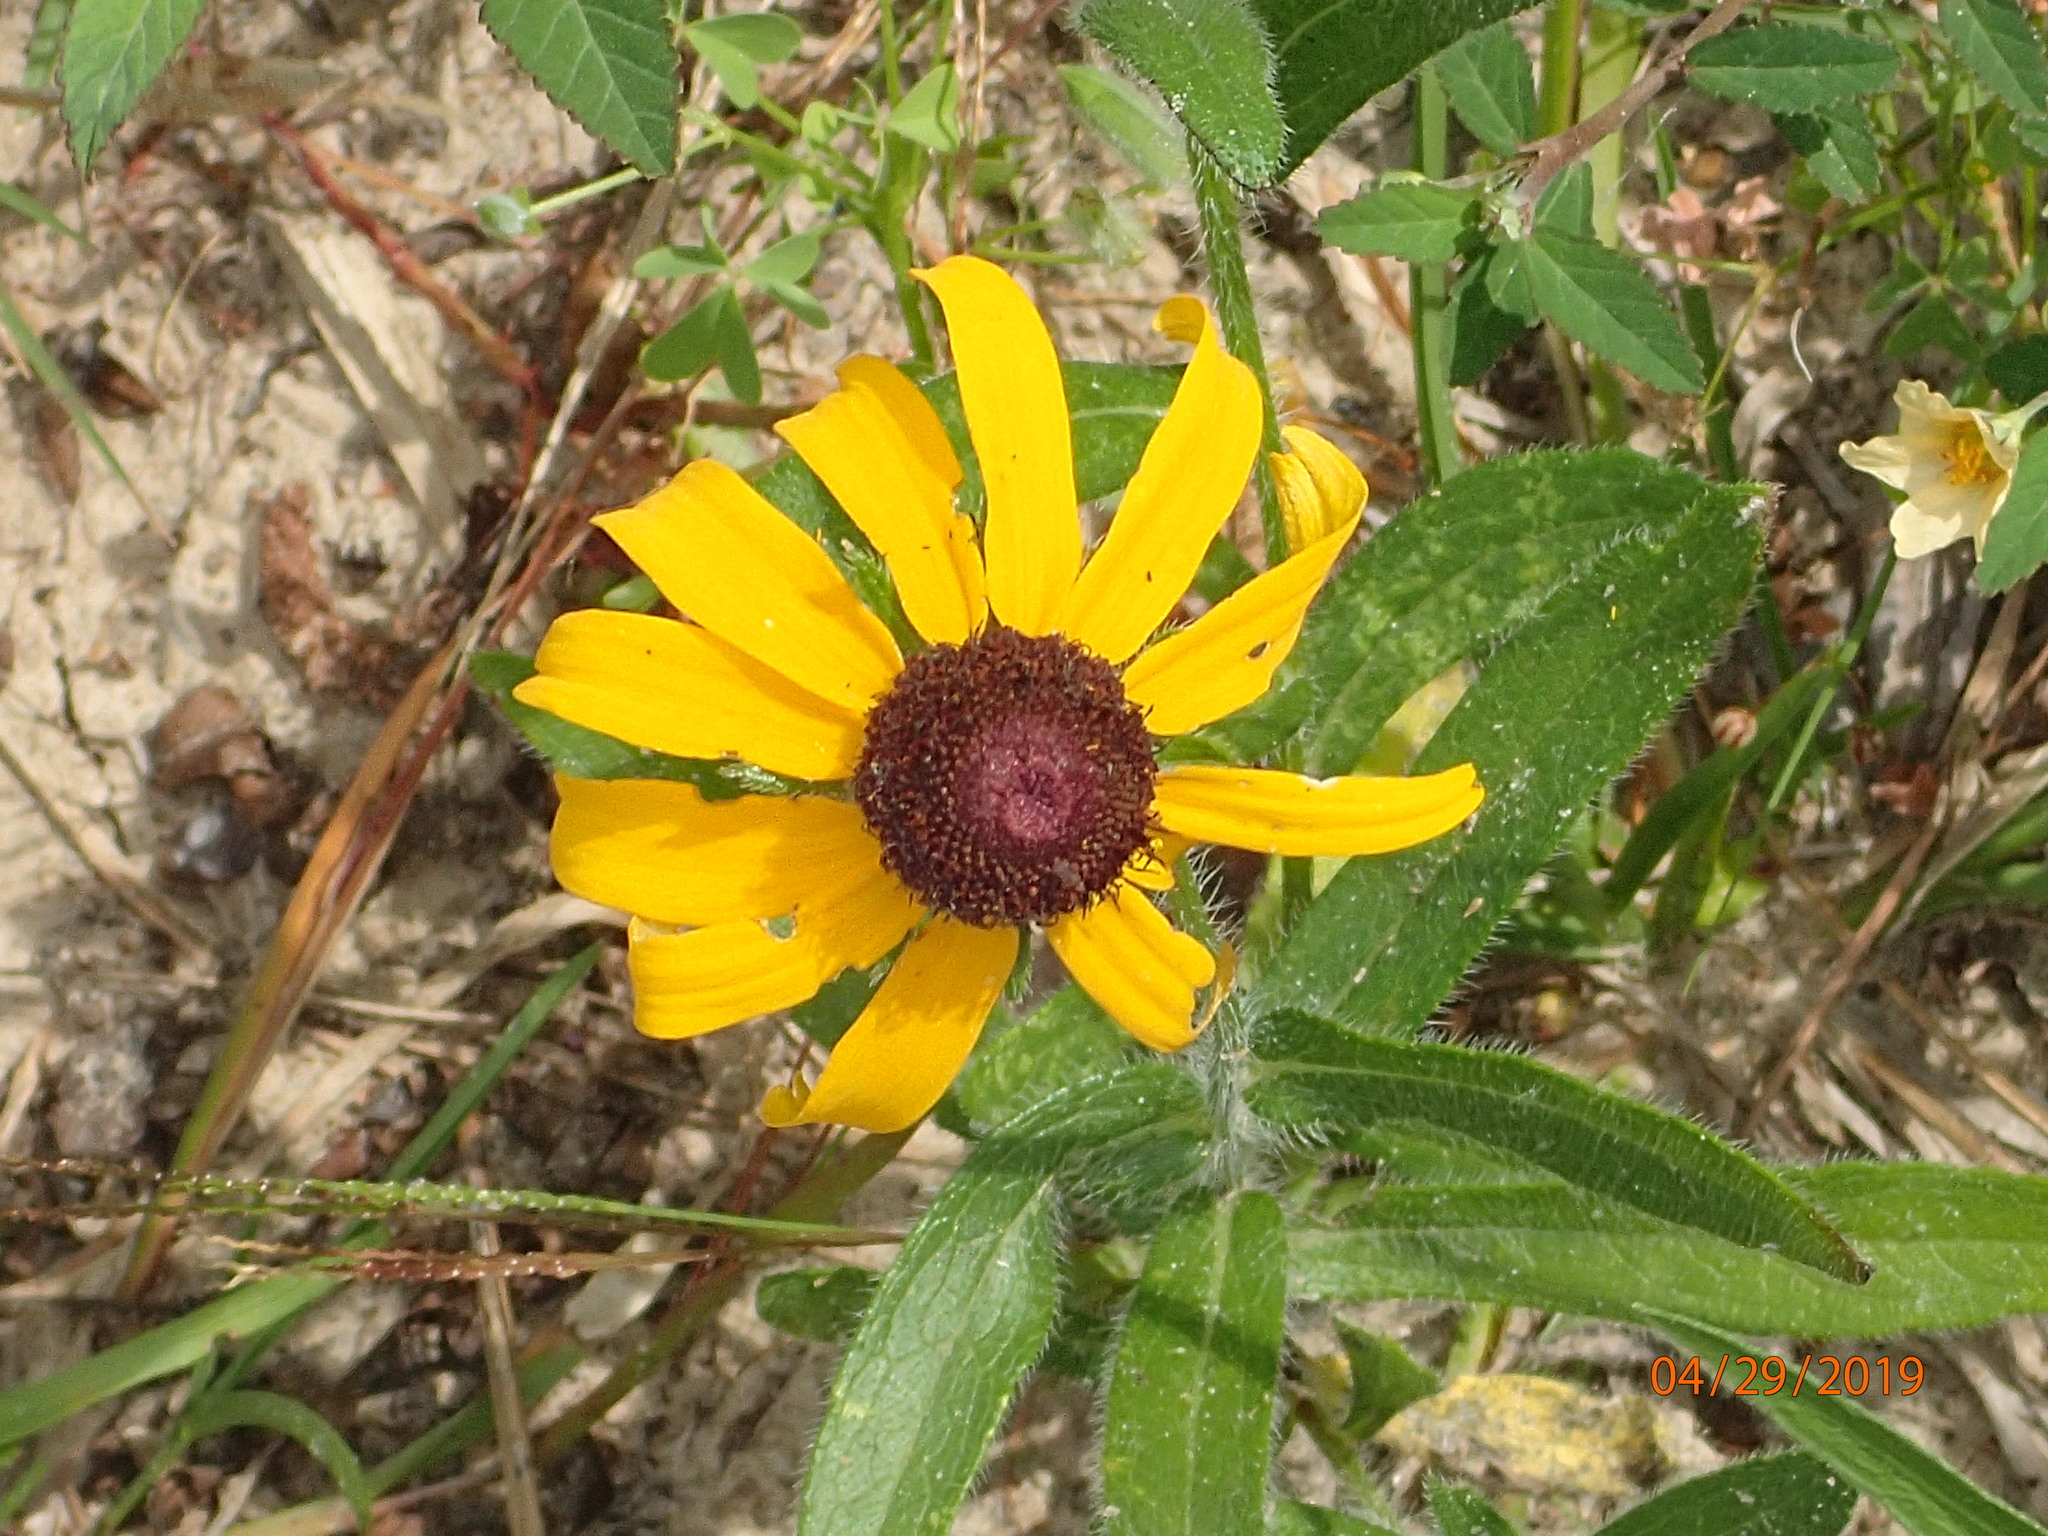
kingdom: Plantae
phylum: Tracheophyta
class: Magnoliopsida
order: Asterales
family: Asteraceae
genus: Rudbeckia
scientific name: Rudbeckia hirta
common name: Black-eyed-susan
